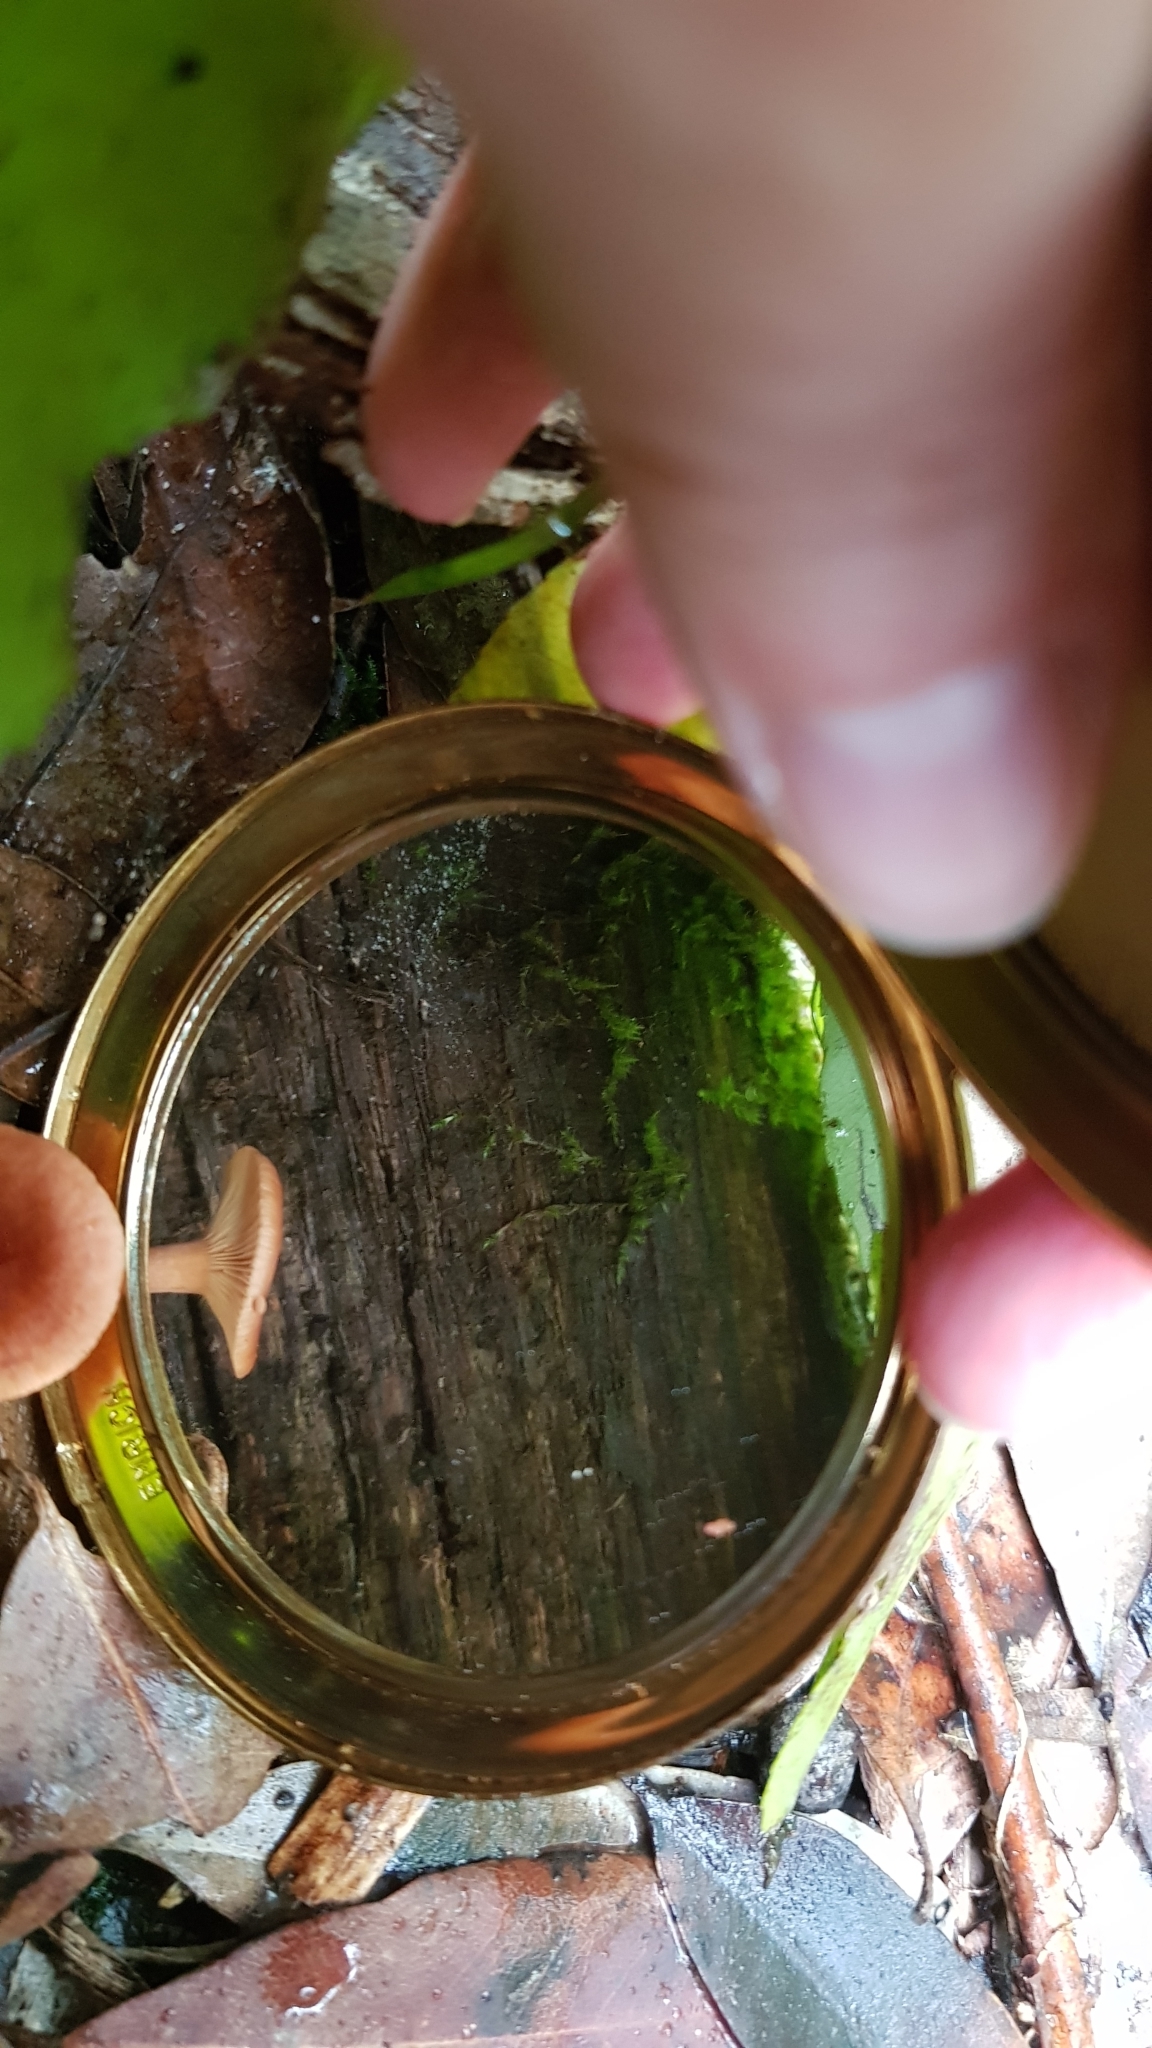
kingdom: Fungi
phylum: Basidiomycota
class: Agaricomycetes
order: Russulales
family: Russulaceae
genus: Lactarius
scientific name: Lactarius eucalypti
